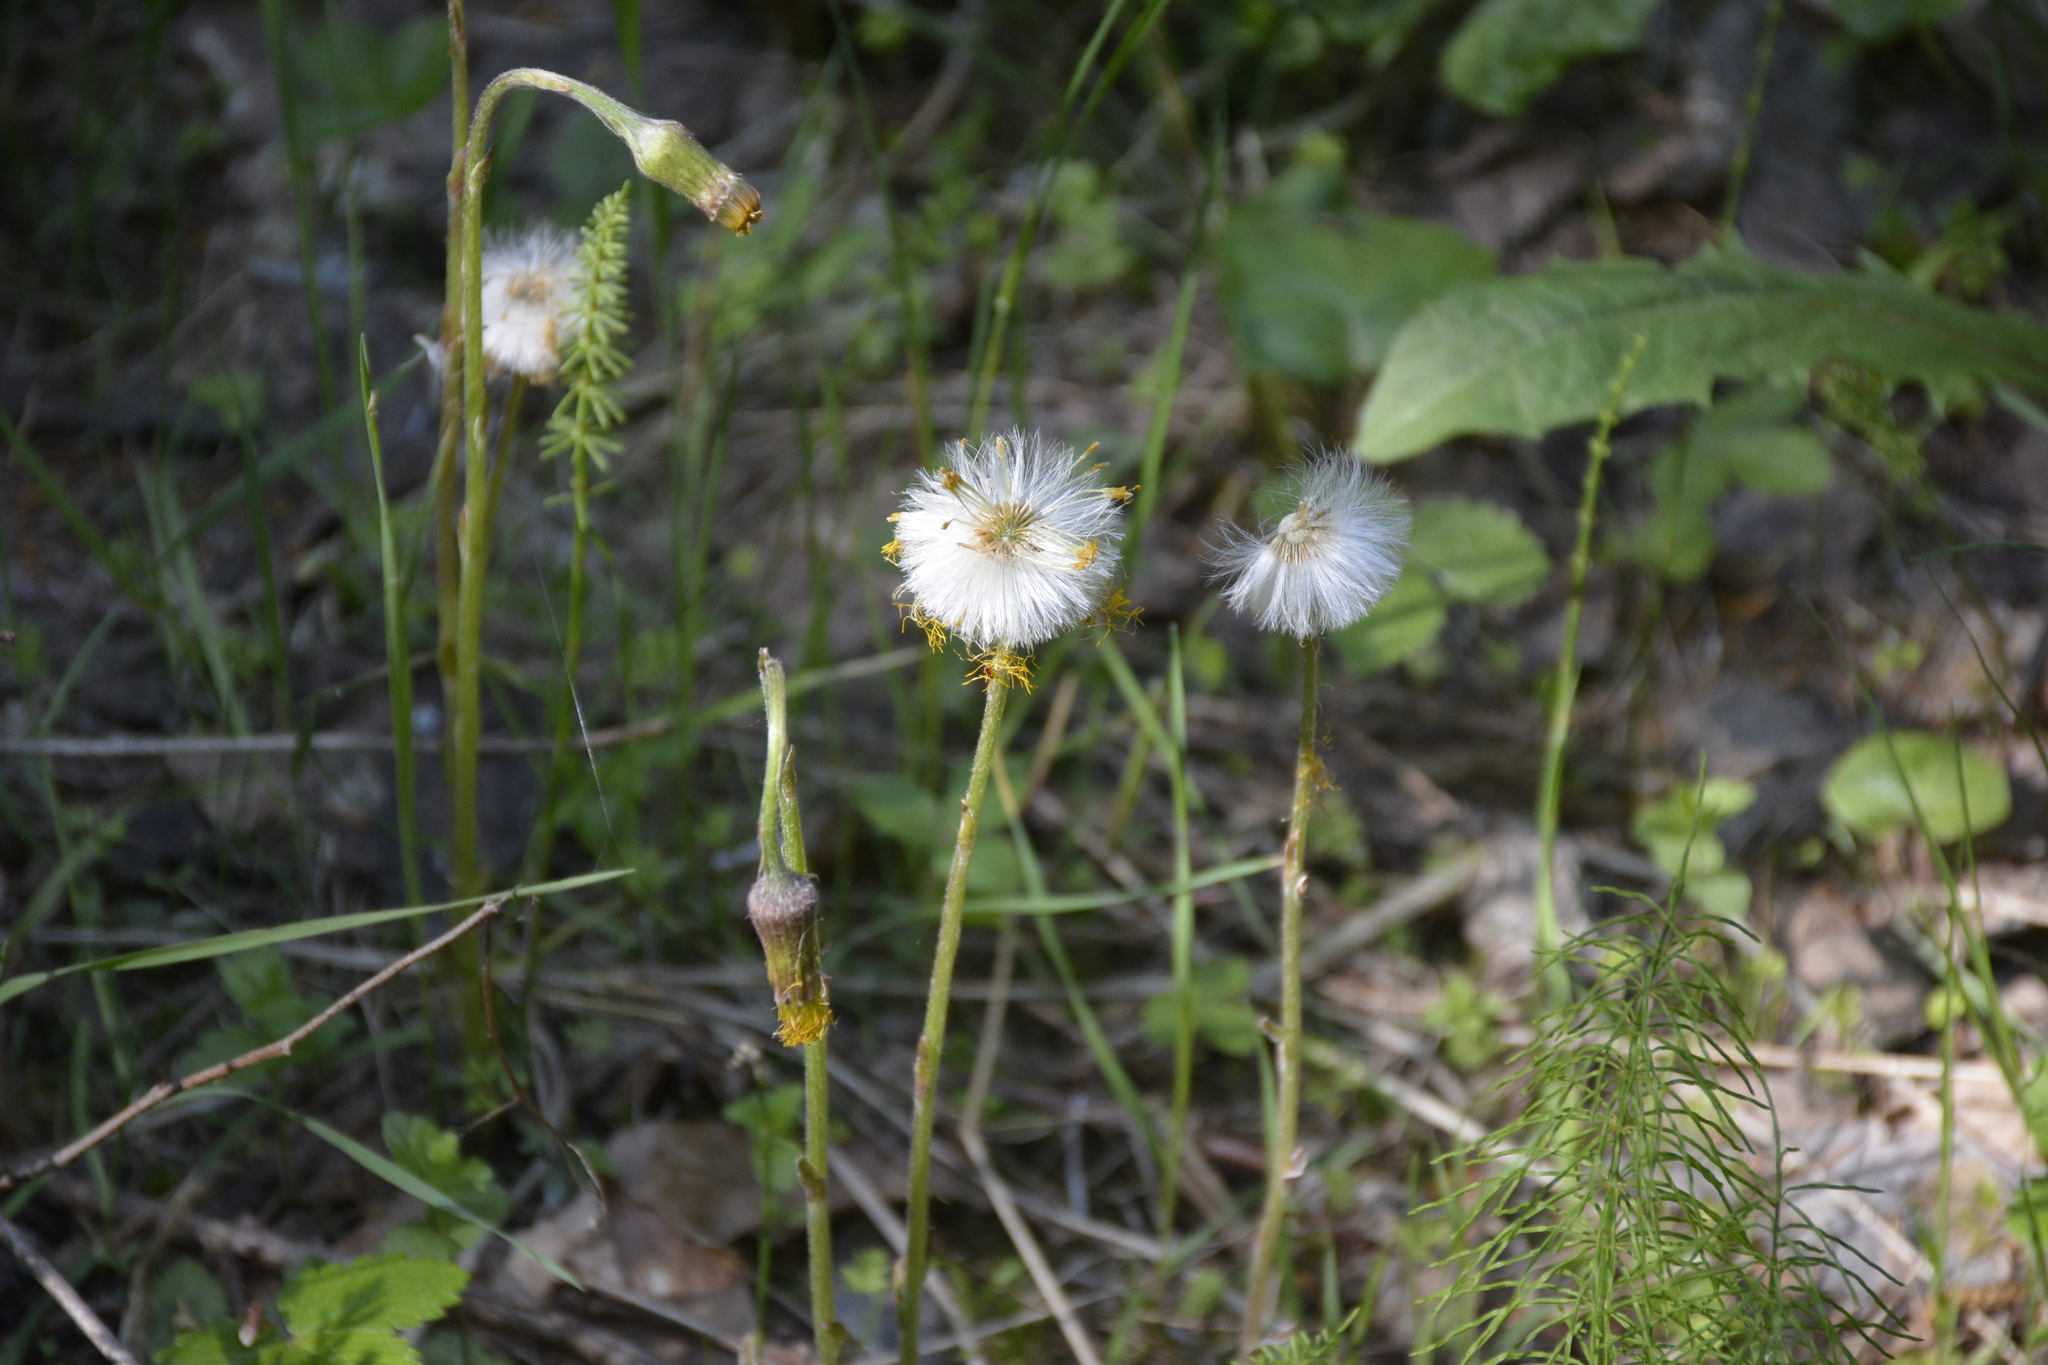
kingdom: Plantae
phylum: Tracheophyta
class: Magnoliopsida
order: Asterales
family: Asteraceae
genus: Tussilago
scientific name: Tussilago farfara
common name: Coltsfoot
